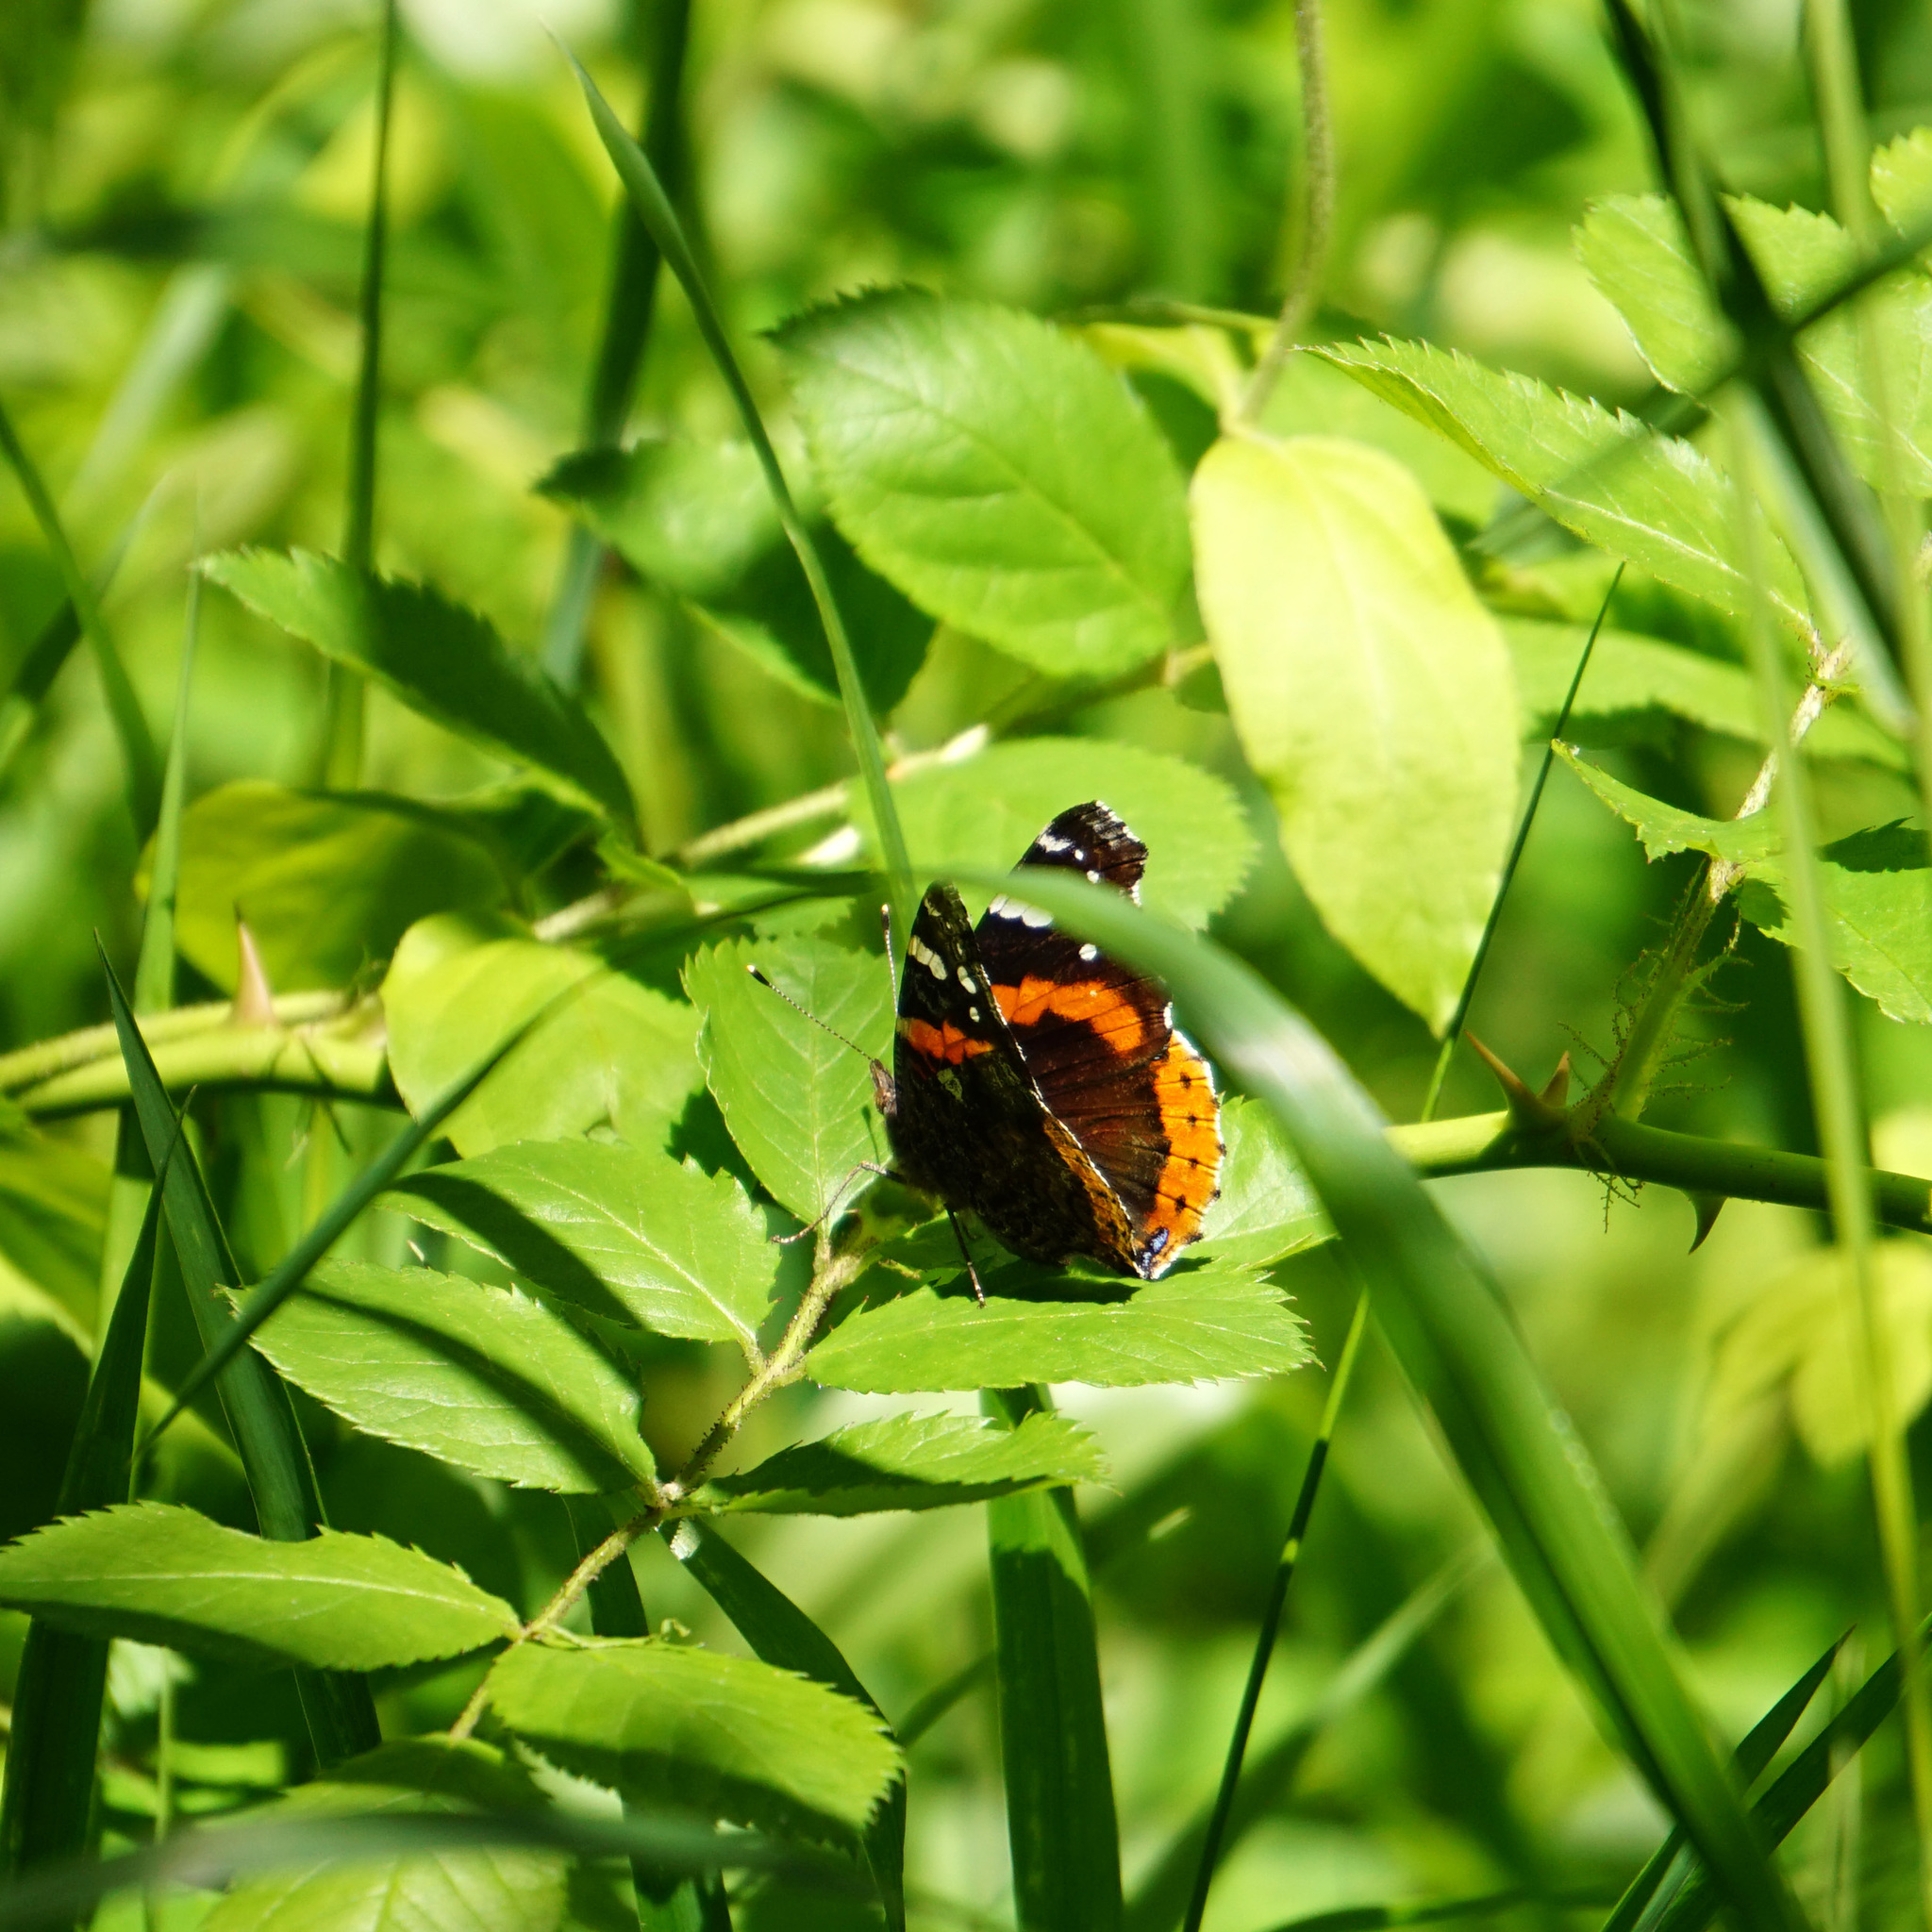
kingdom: Animalia
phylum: Arthropoda
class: Insecta
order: Lepidoptera
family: Nymphalidae
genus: Vanessa
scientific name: Vanessa atalanta
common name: Red admiral
